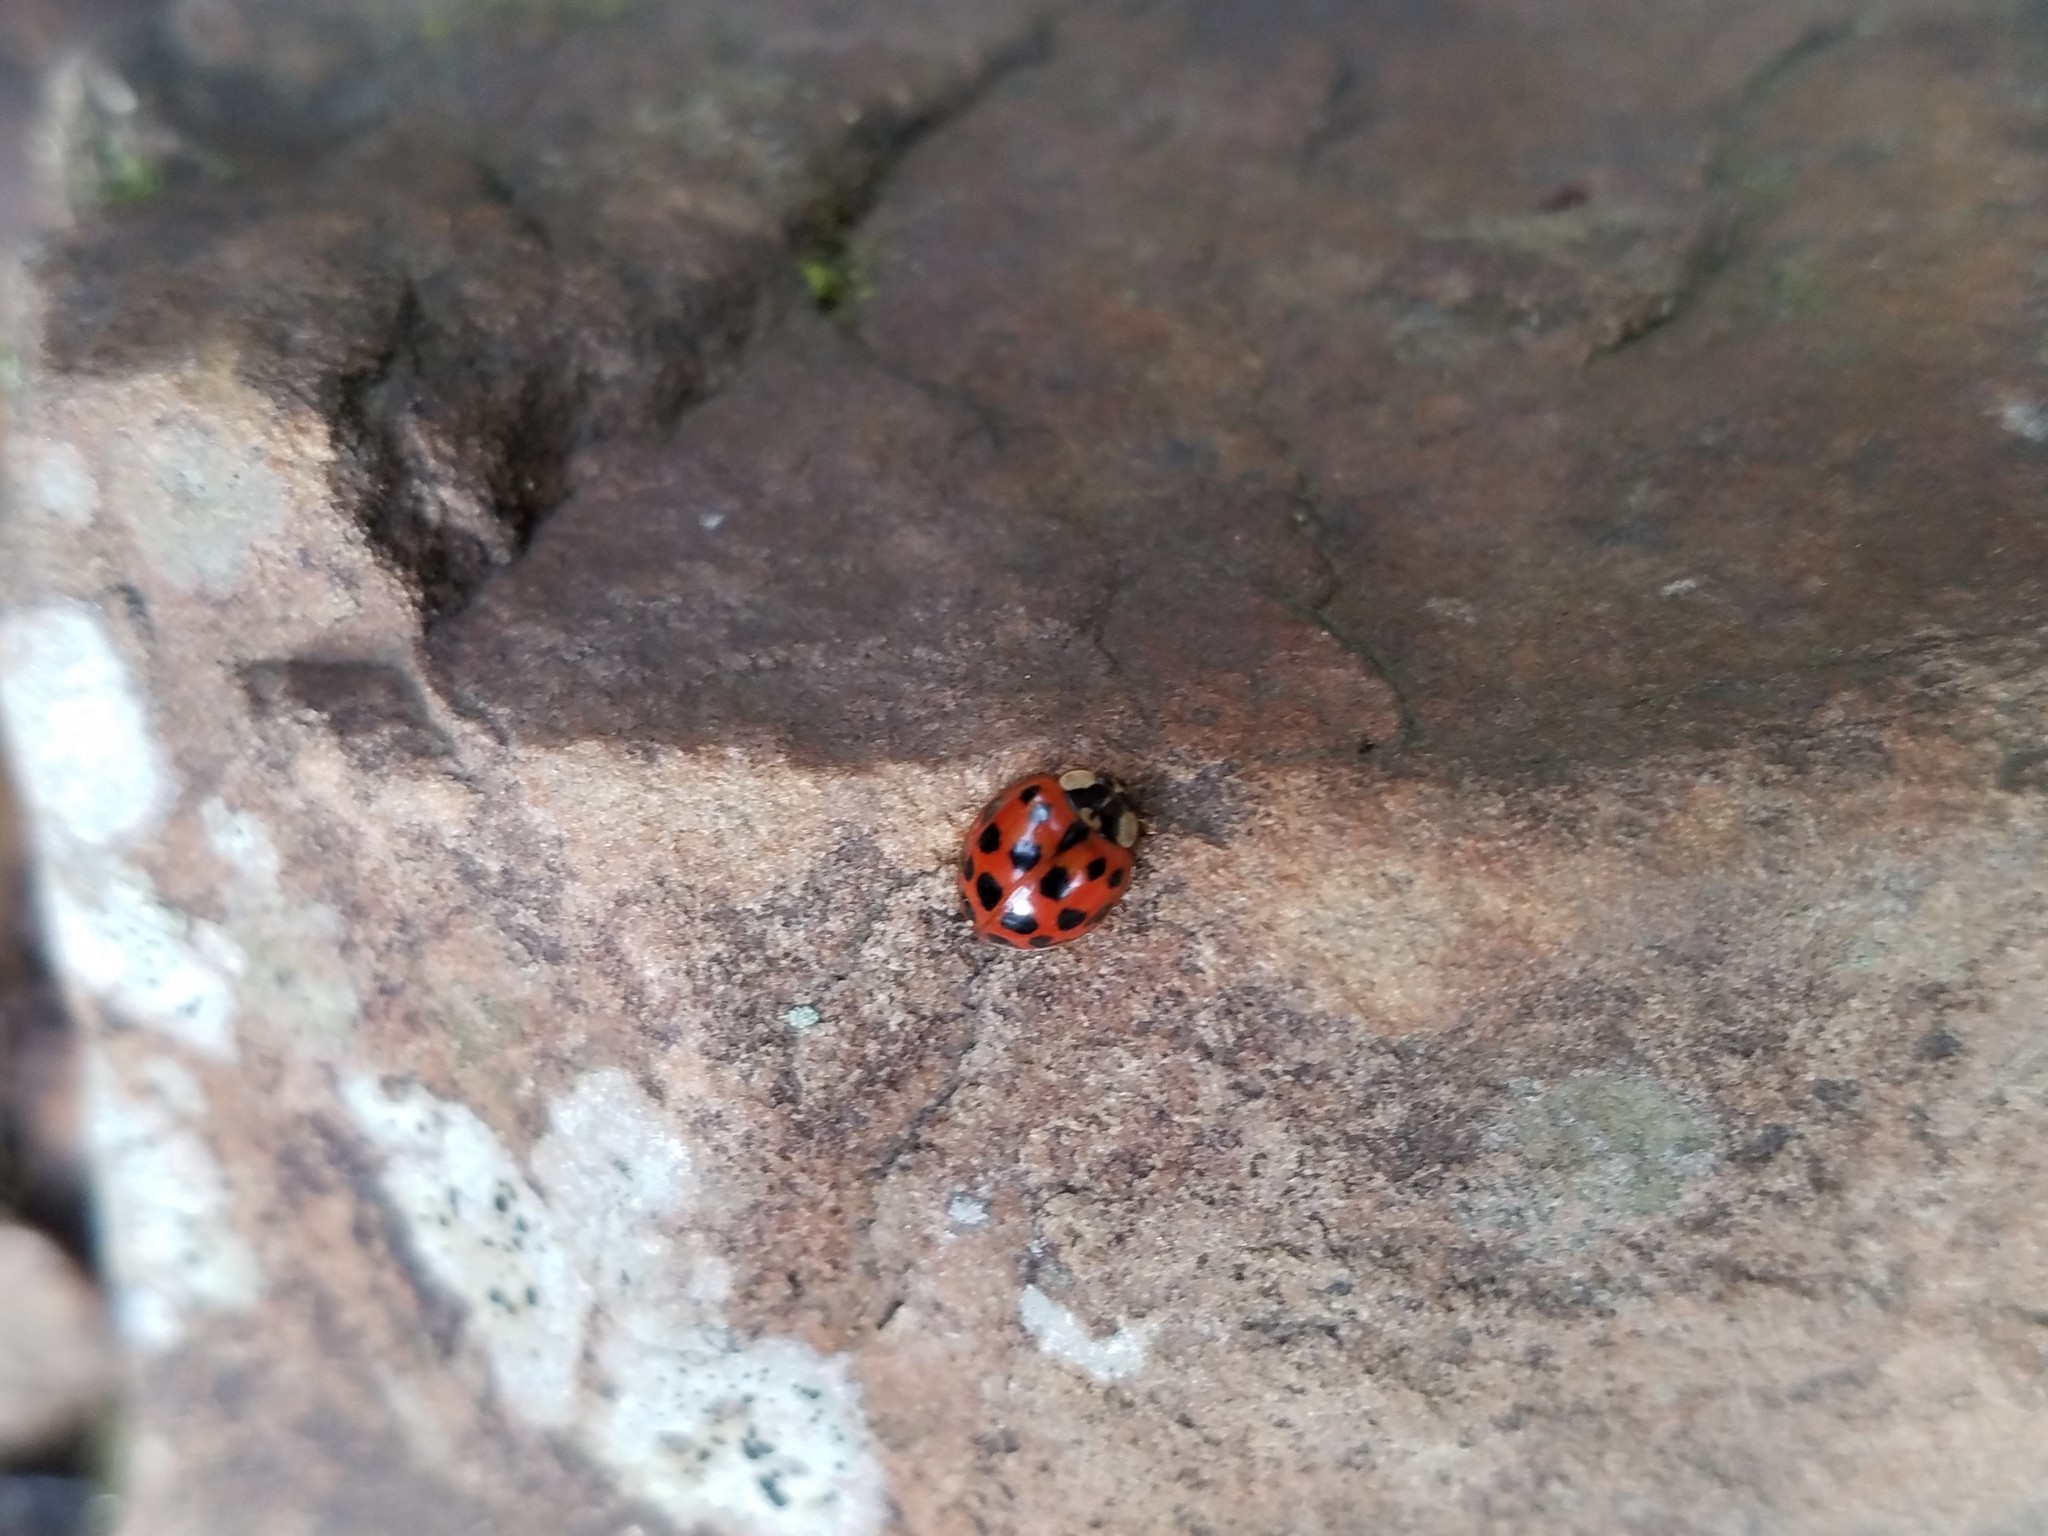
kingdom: Animalia
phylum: Arthropoda
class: Insecta
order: Coleoptera
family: Coccinellidae
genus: Harmonia
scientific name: Harmonia axyridis
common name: Harlequin ladybird
